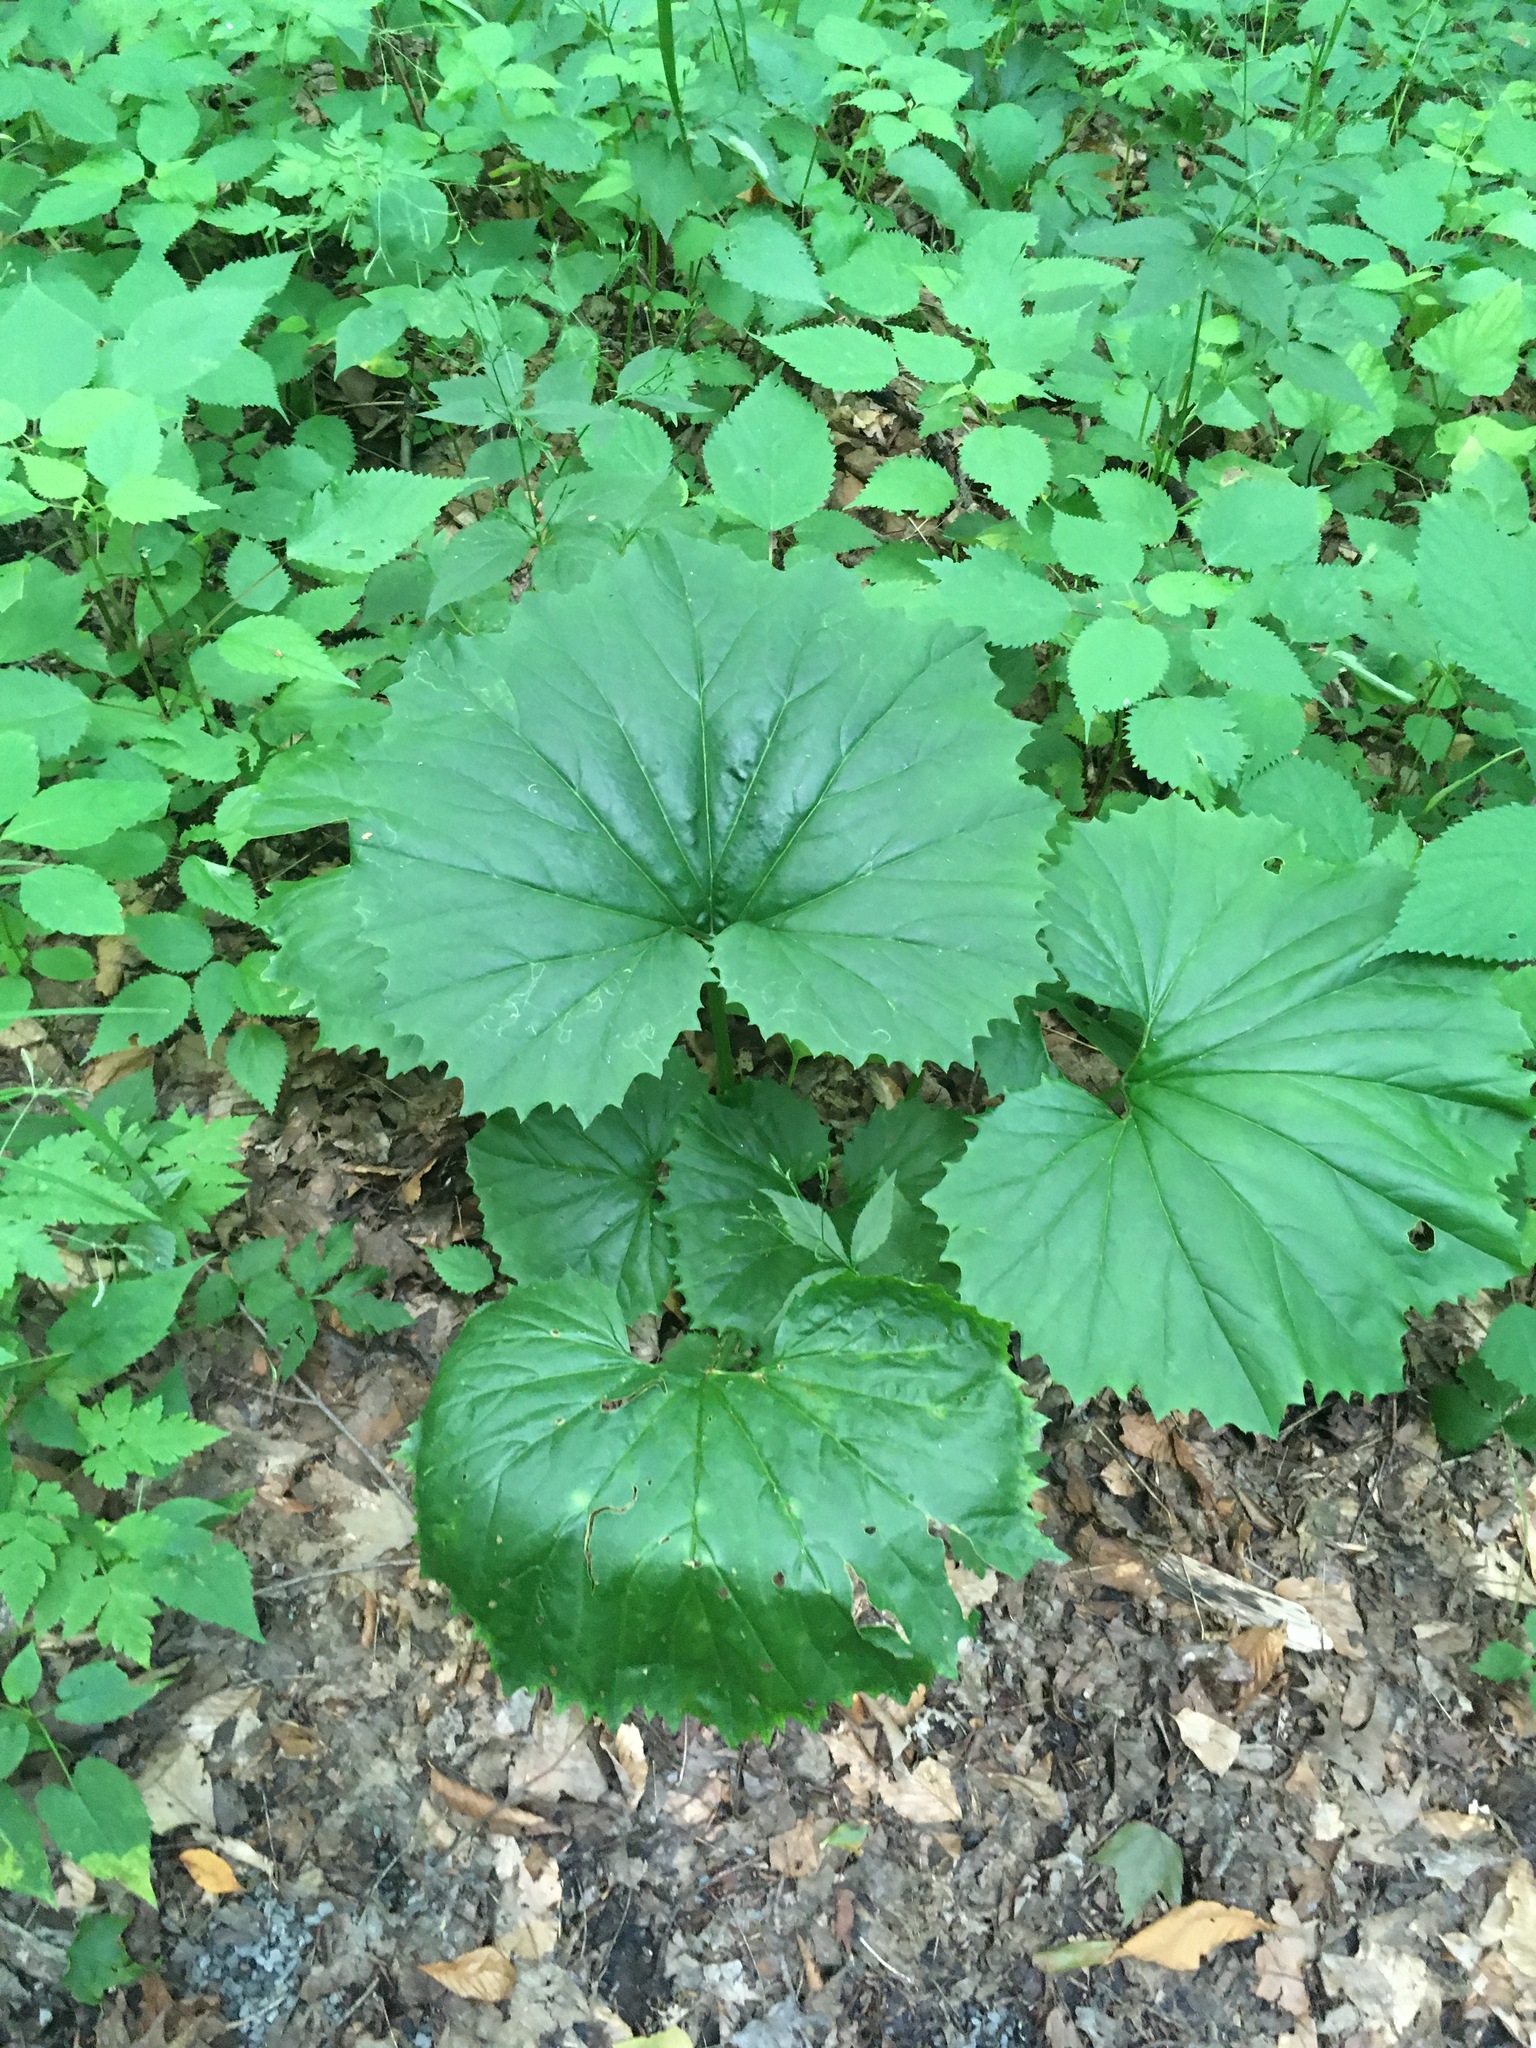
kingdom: Plantae
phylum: Tracheophyta
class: Magnoliopsida
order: Asterales
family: Asteraceae
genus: Arnoglossum
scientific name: Arnoglossum reniforme
